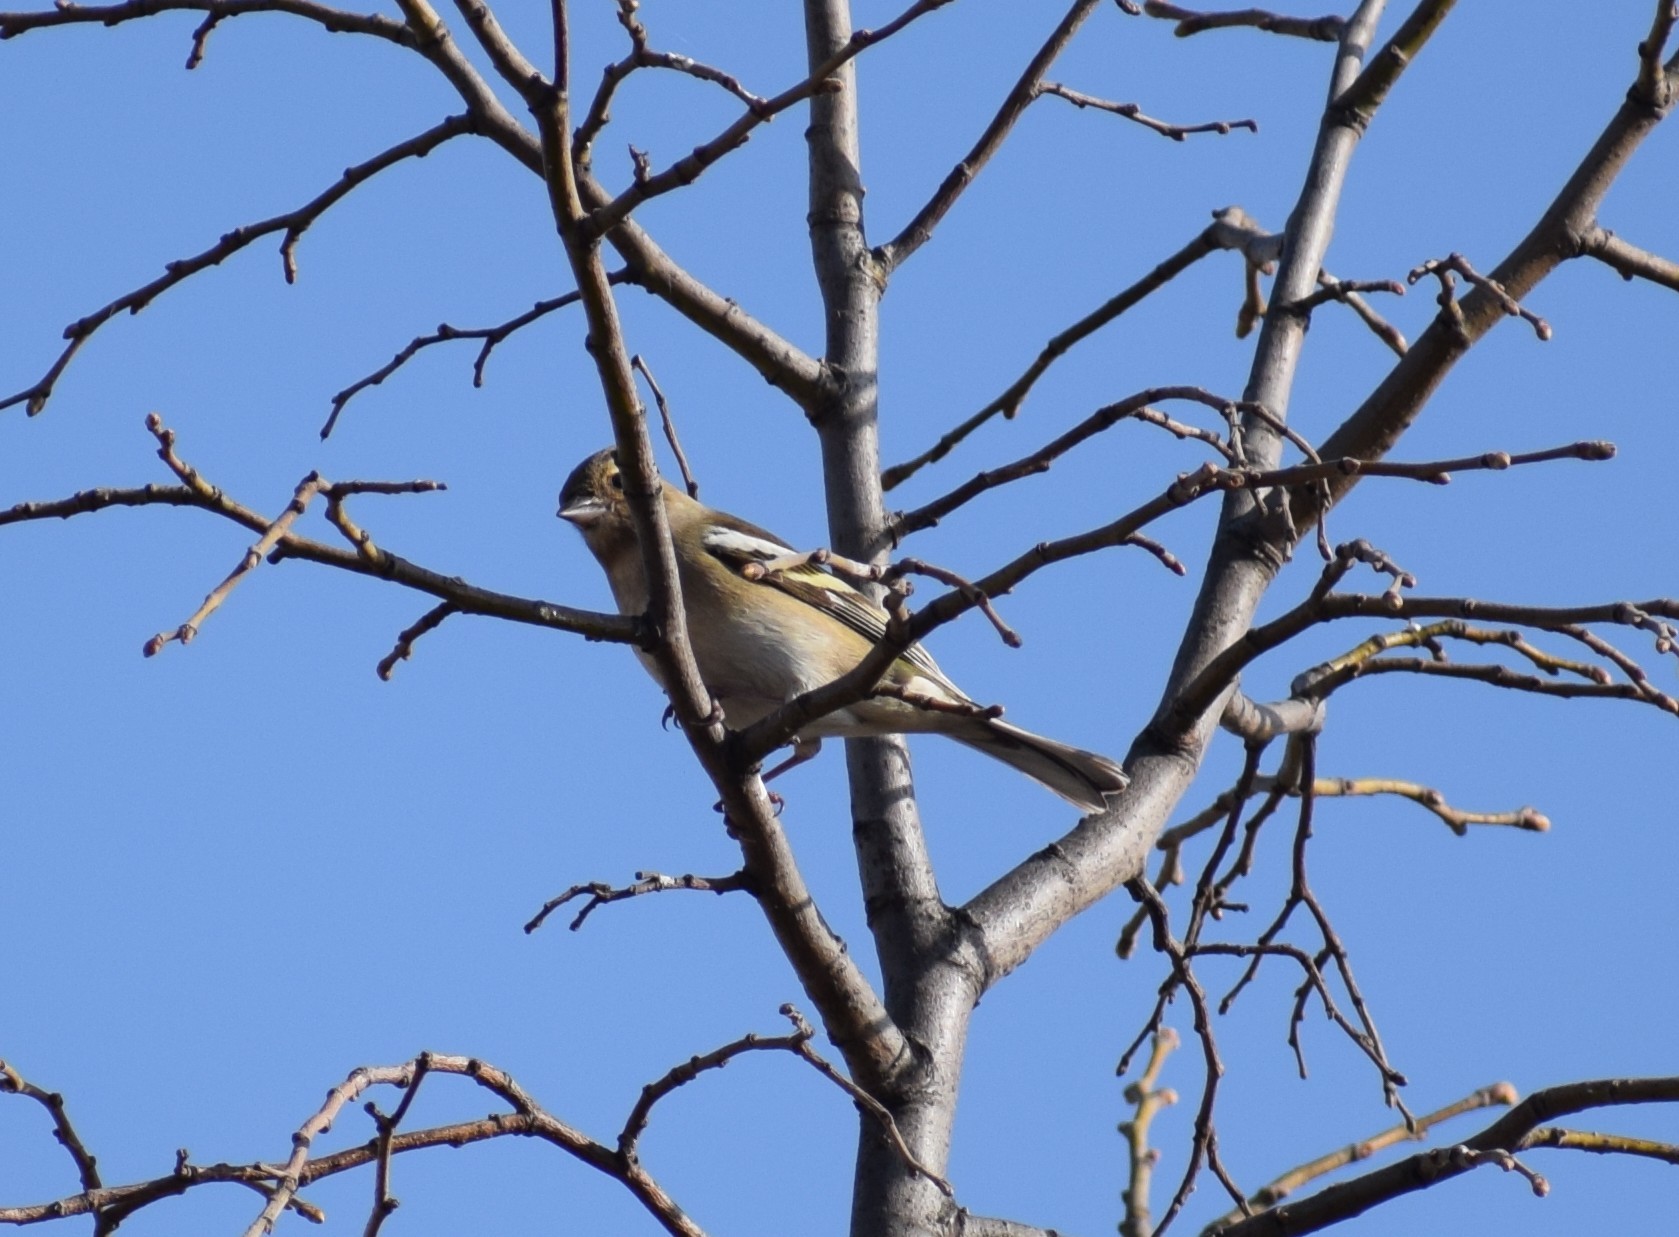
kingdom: Animalia
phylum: Chordata
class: Aves
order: Passeriformes
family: Fringillidae
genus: Fringilla
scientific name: Fringilla coelebs
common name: Common chaffinch
